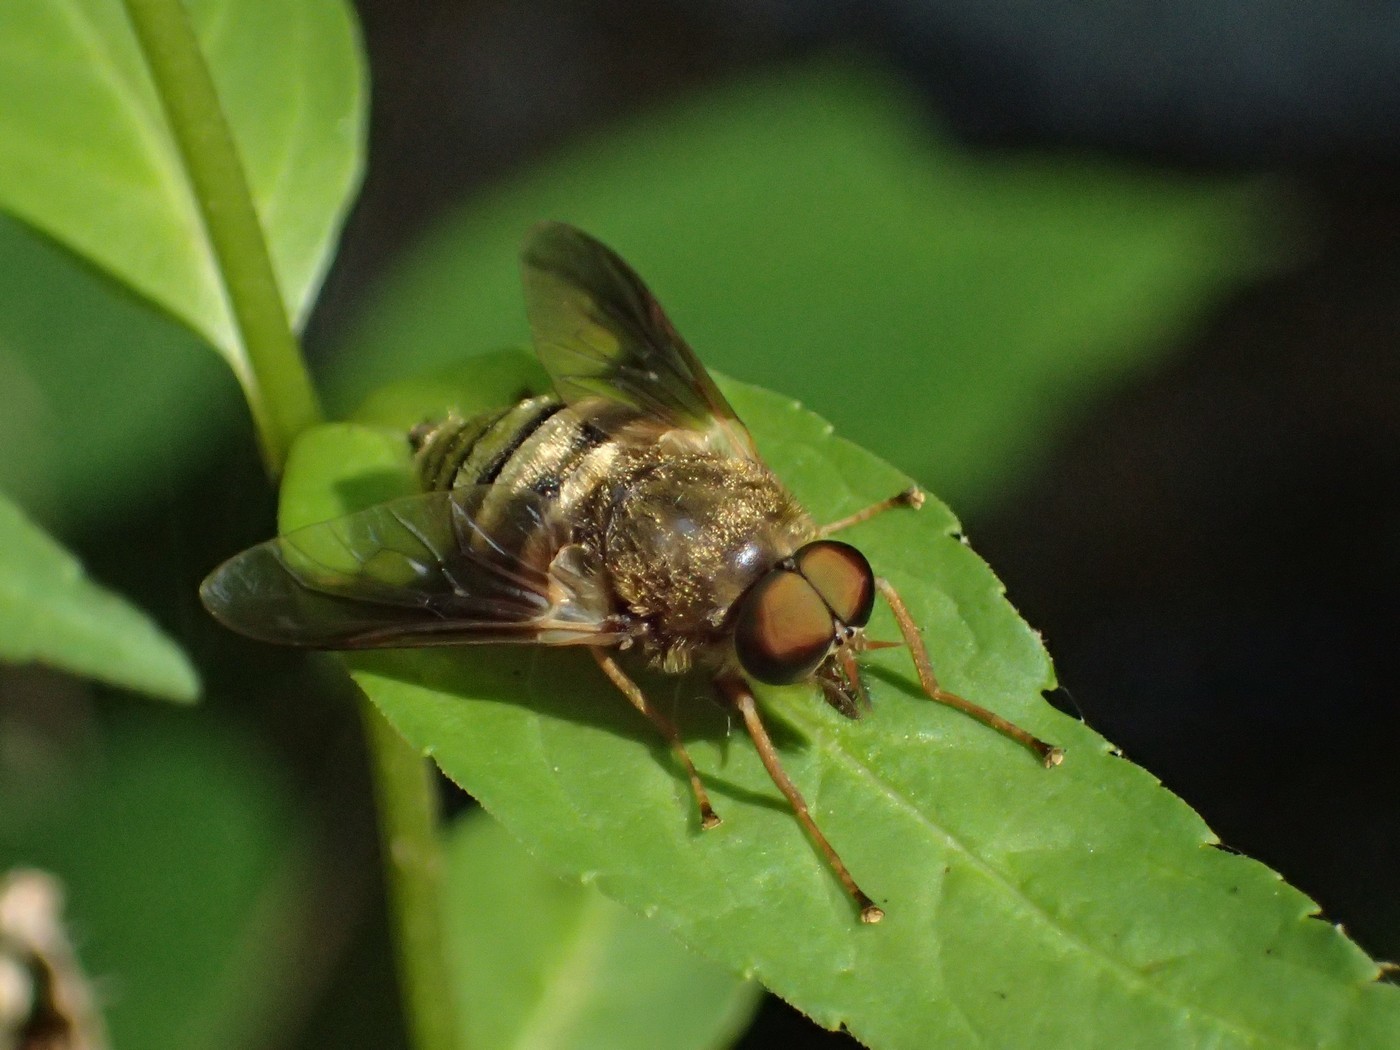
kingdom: Animalia
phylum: Arthropoda
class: Insecta
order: Diptera
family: Tabanidae
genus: Goniops
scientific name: Goniops chrysocoma
